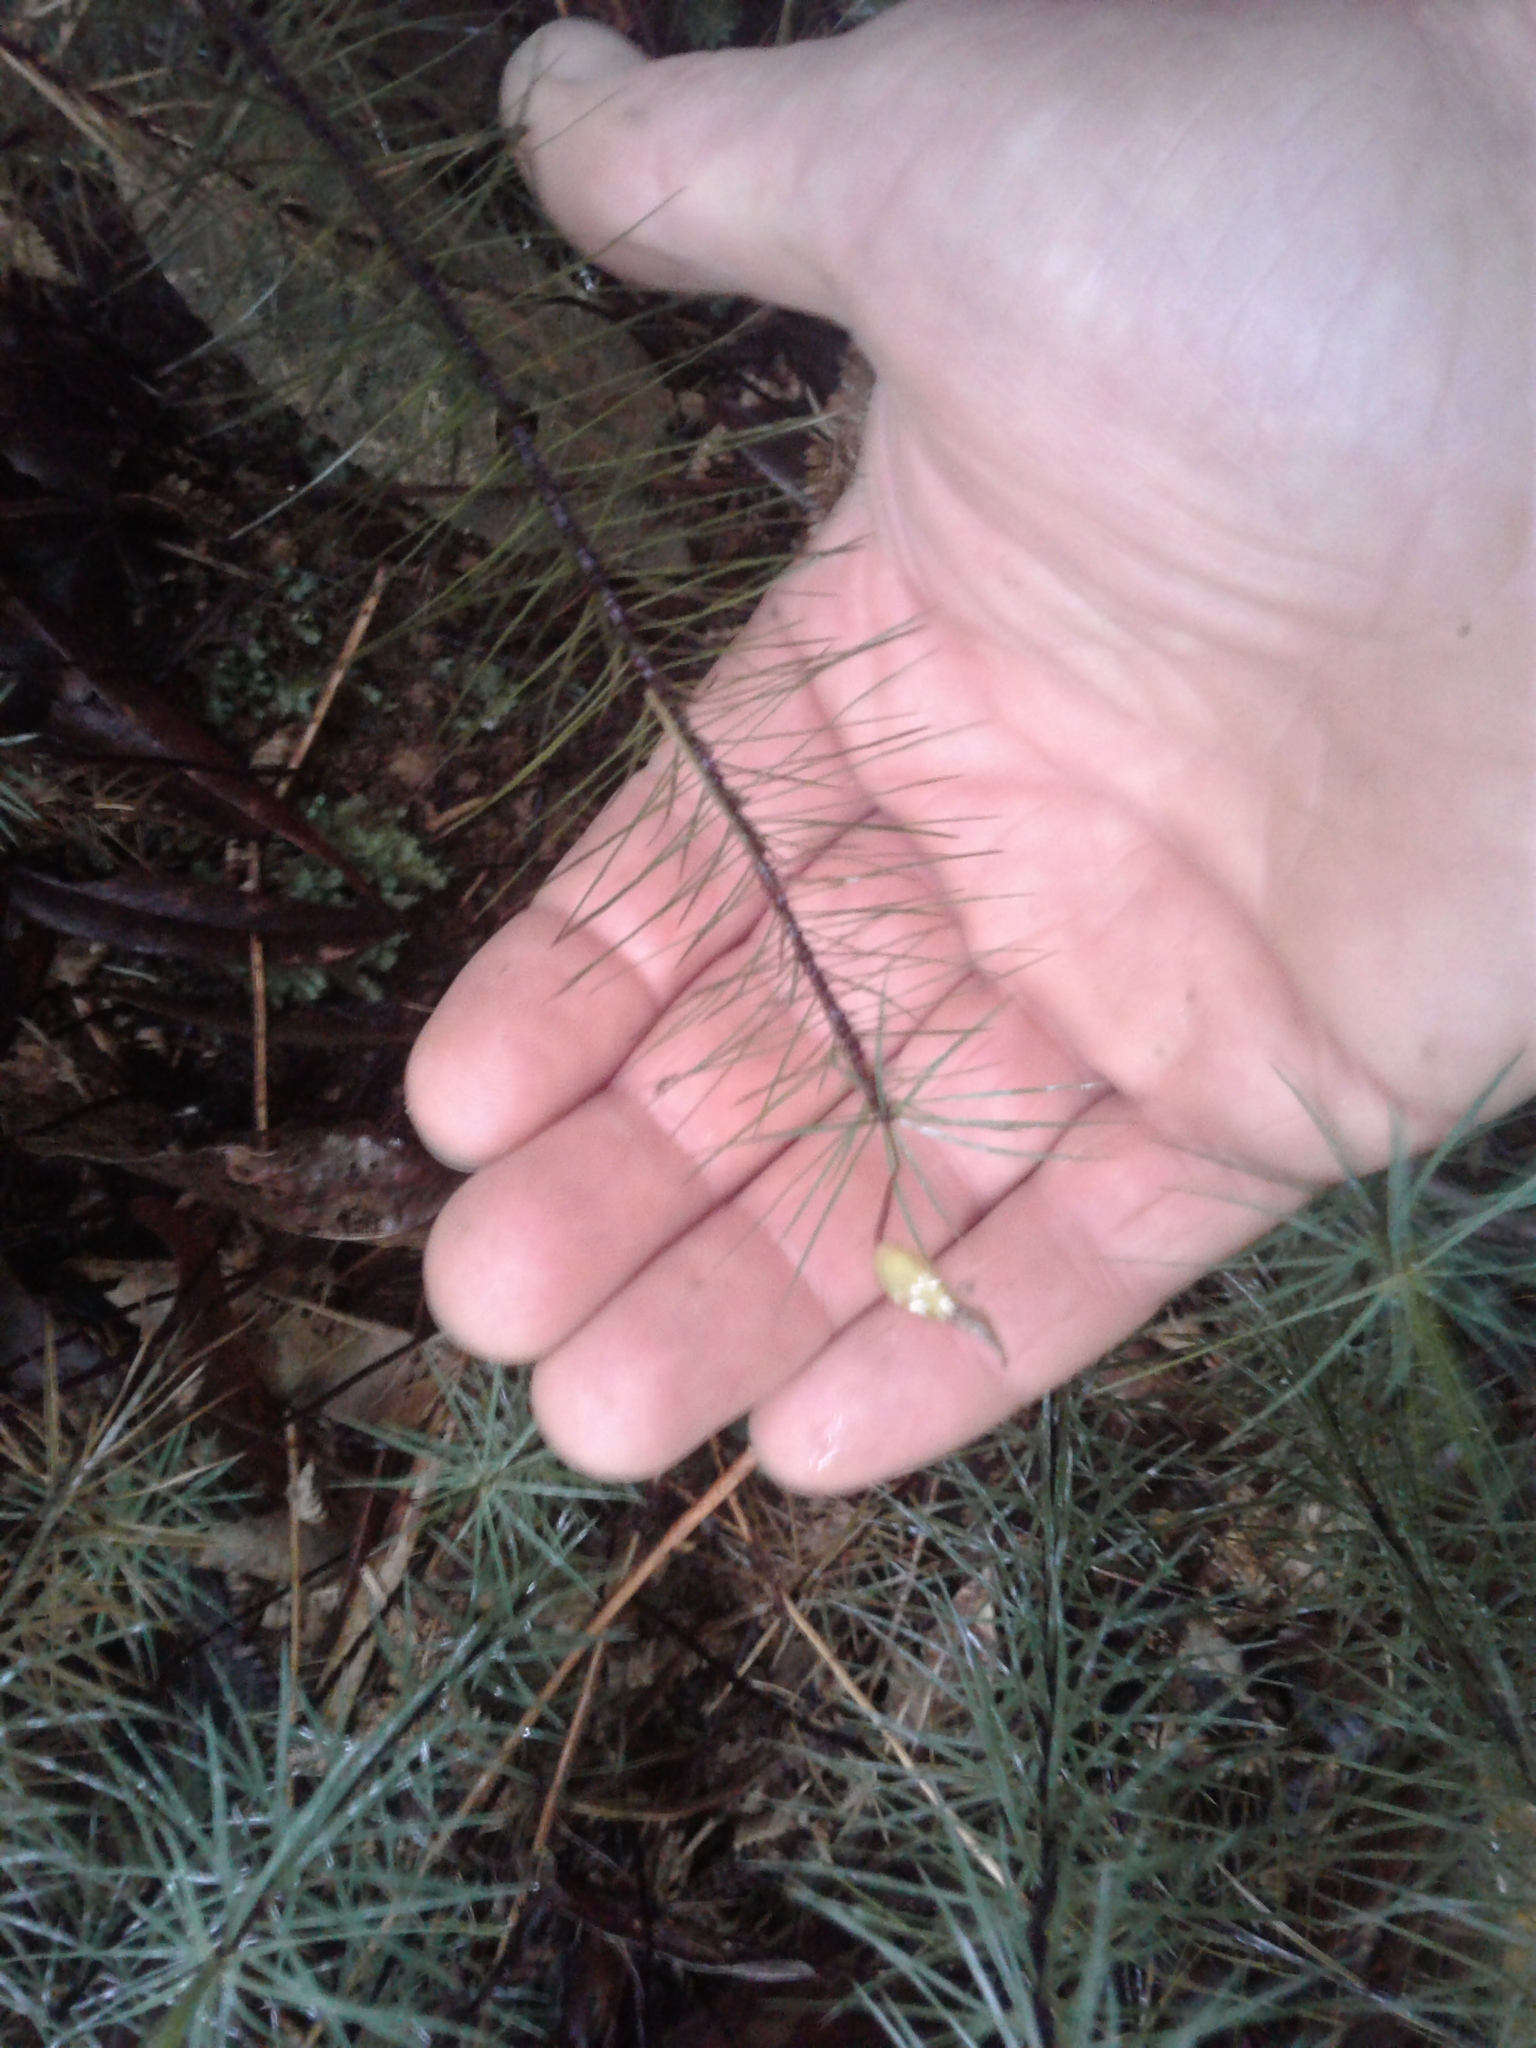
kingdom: Plantae
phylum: Bryophyta
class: Polytrichopsida
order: Polytrichales
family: Polytrichaceae
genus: Dawsonia
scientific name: Dawsonia superba
